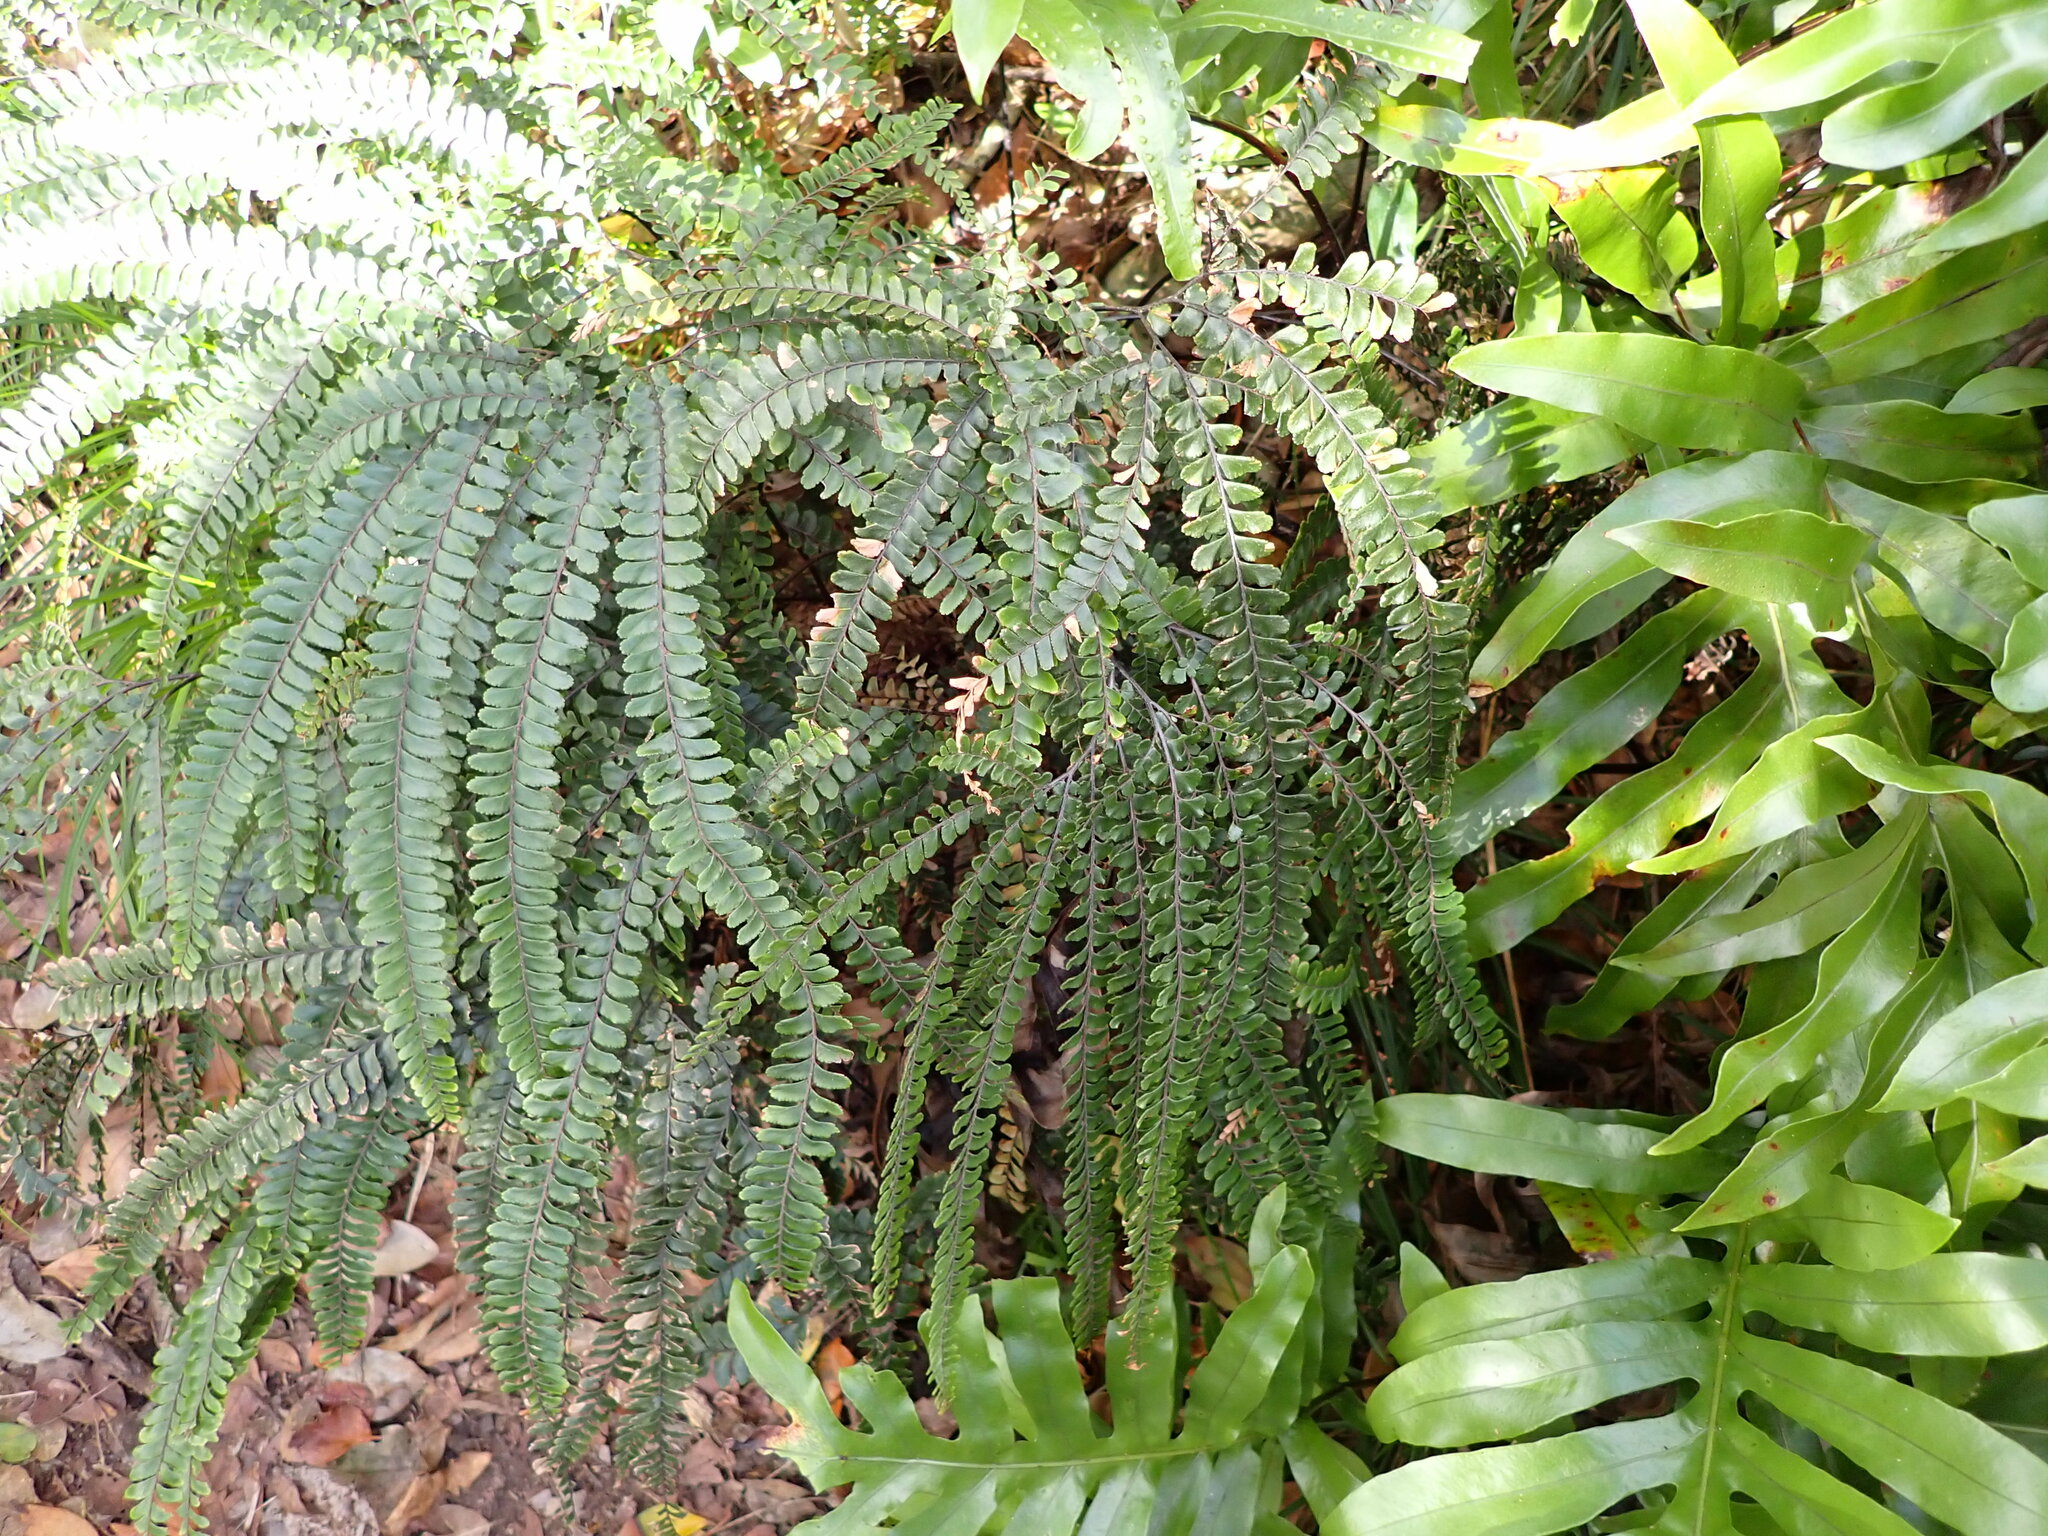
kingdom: Plantae
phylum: Tracheophyta
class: Polypodiopsida
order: Polypodiales
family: Pteridaceae
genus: Adiantum
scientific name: Adiantum hispidulum
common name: Rough maidenhair
